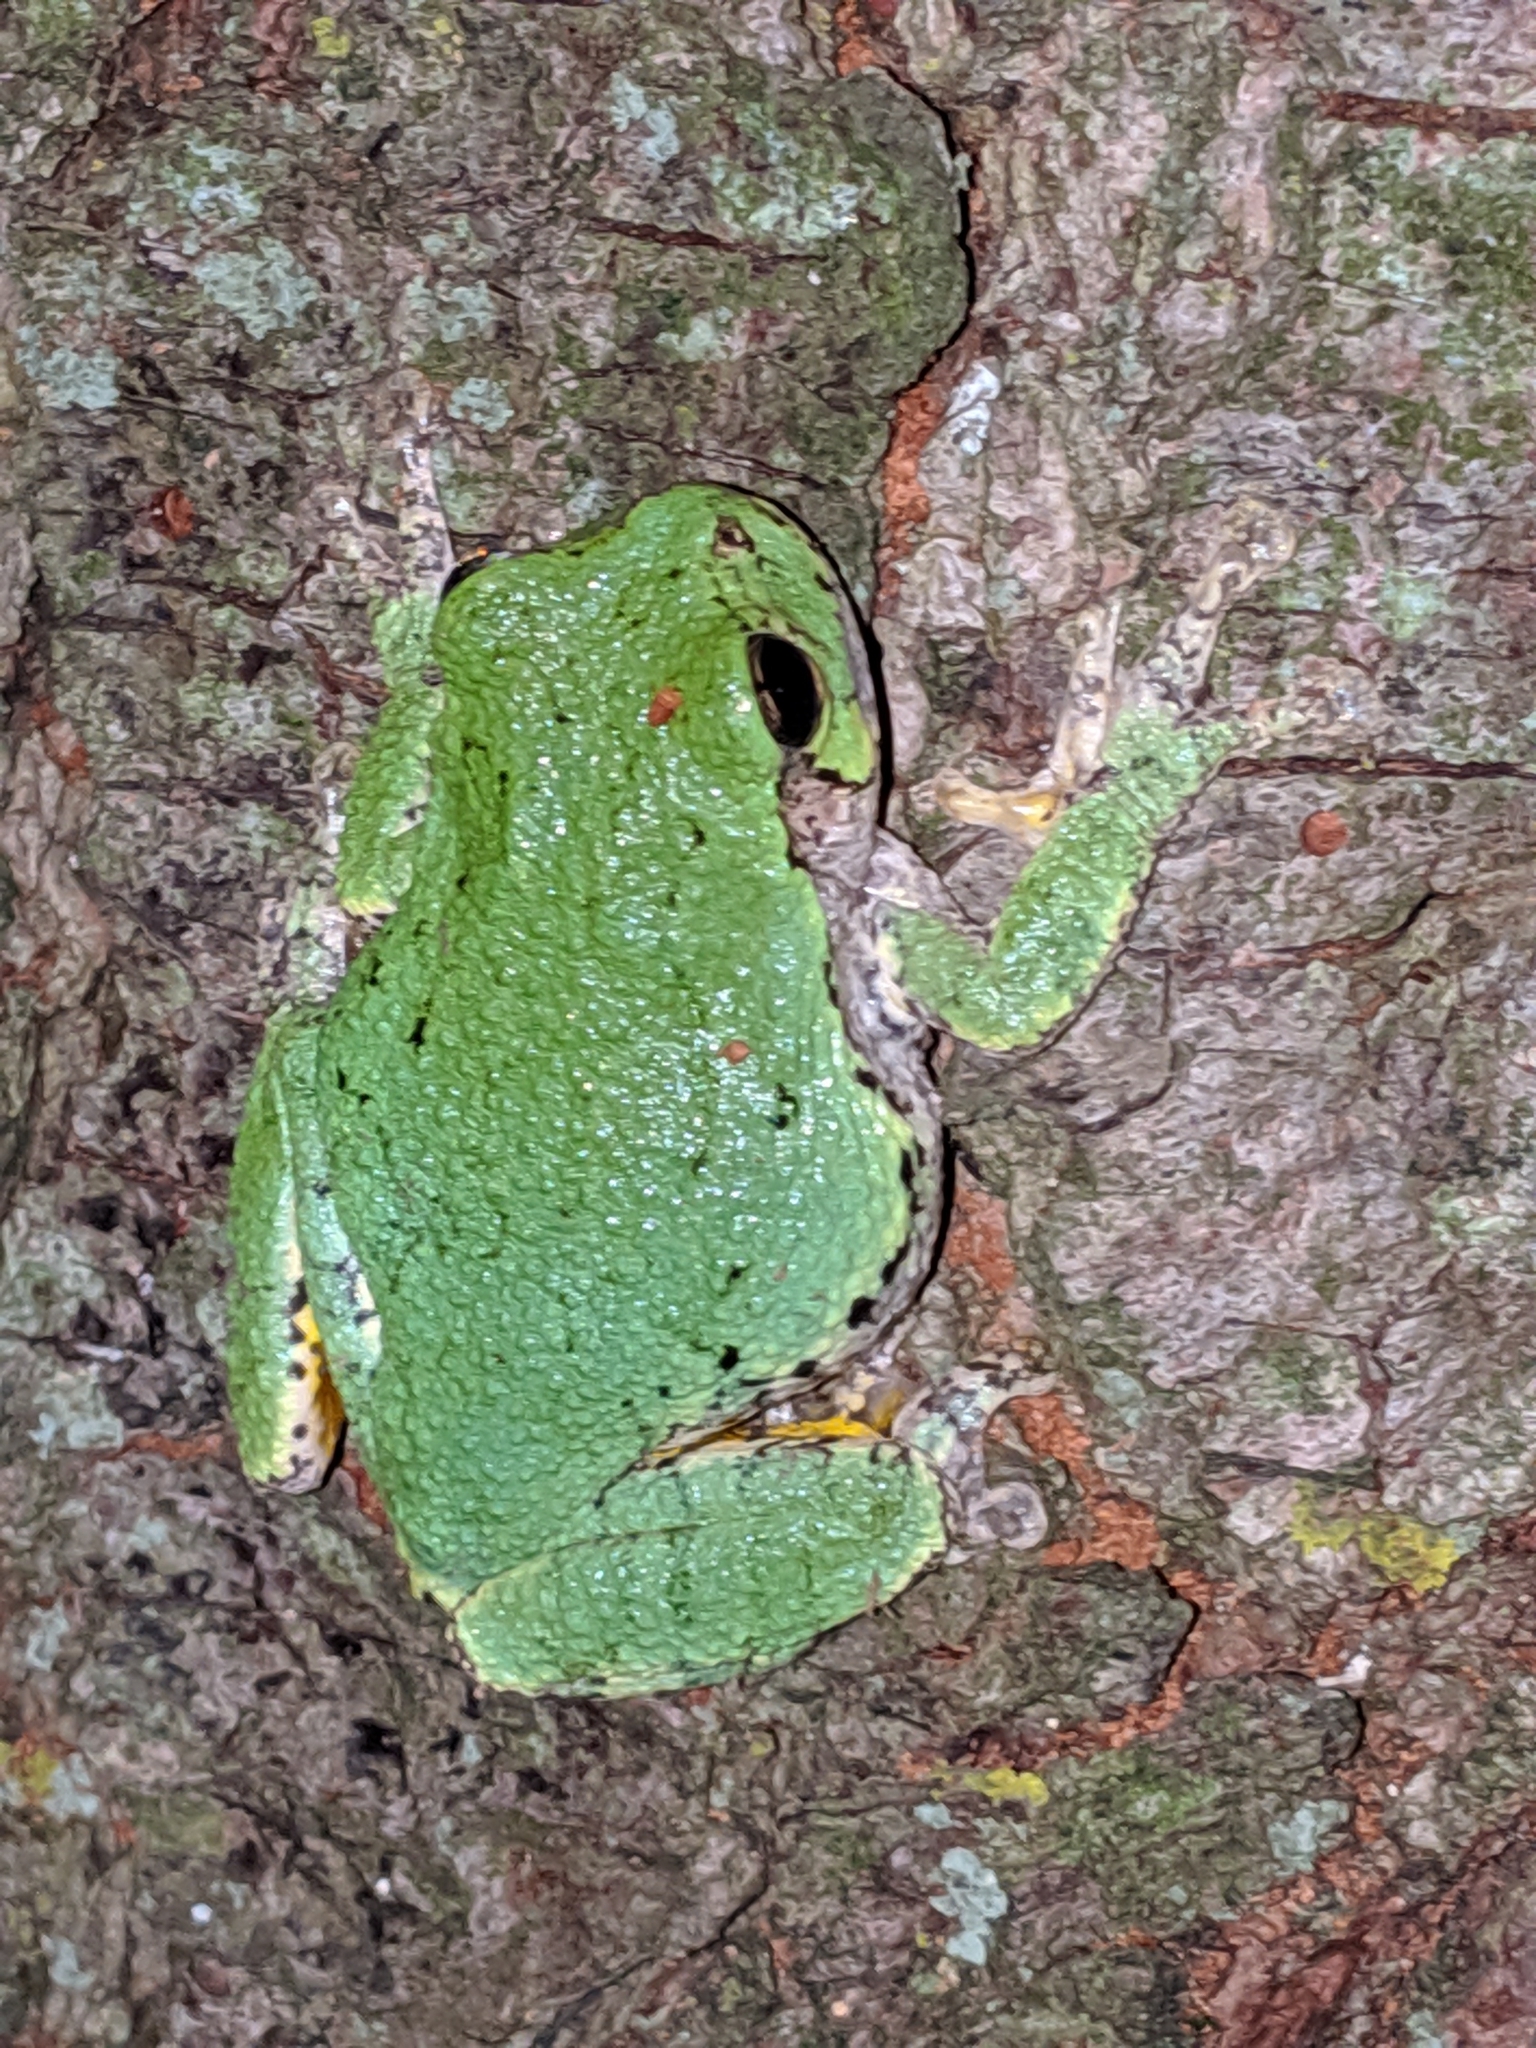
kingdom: Animalia
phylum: Chordata
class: Amphibia
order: Anura
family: Hylidae
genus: Dryophytes
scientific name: Dryophytes versicolor
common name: Gray treefrog
